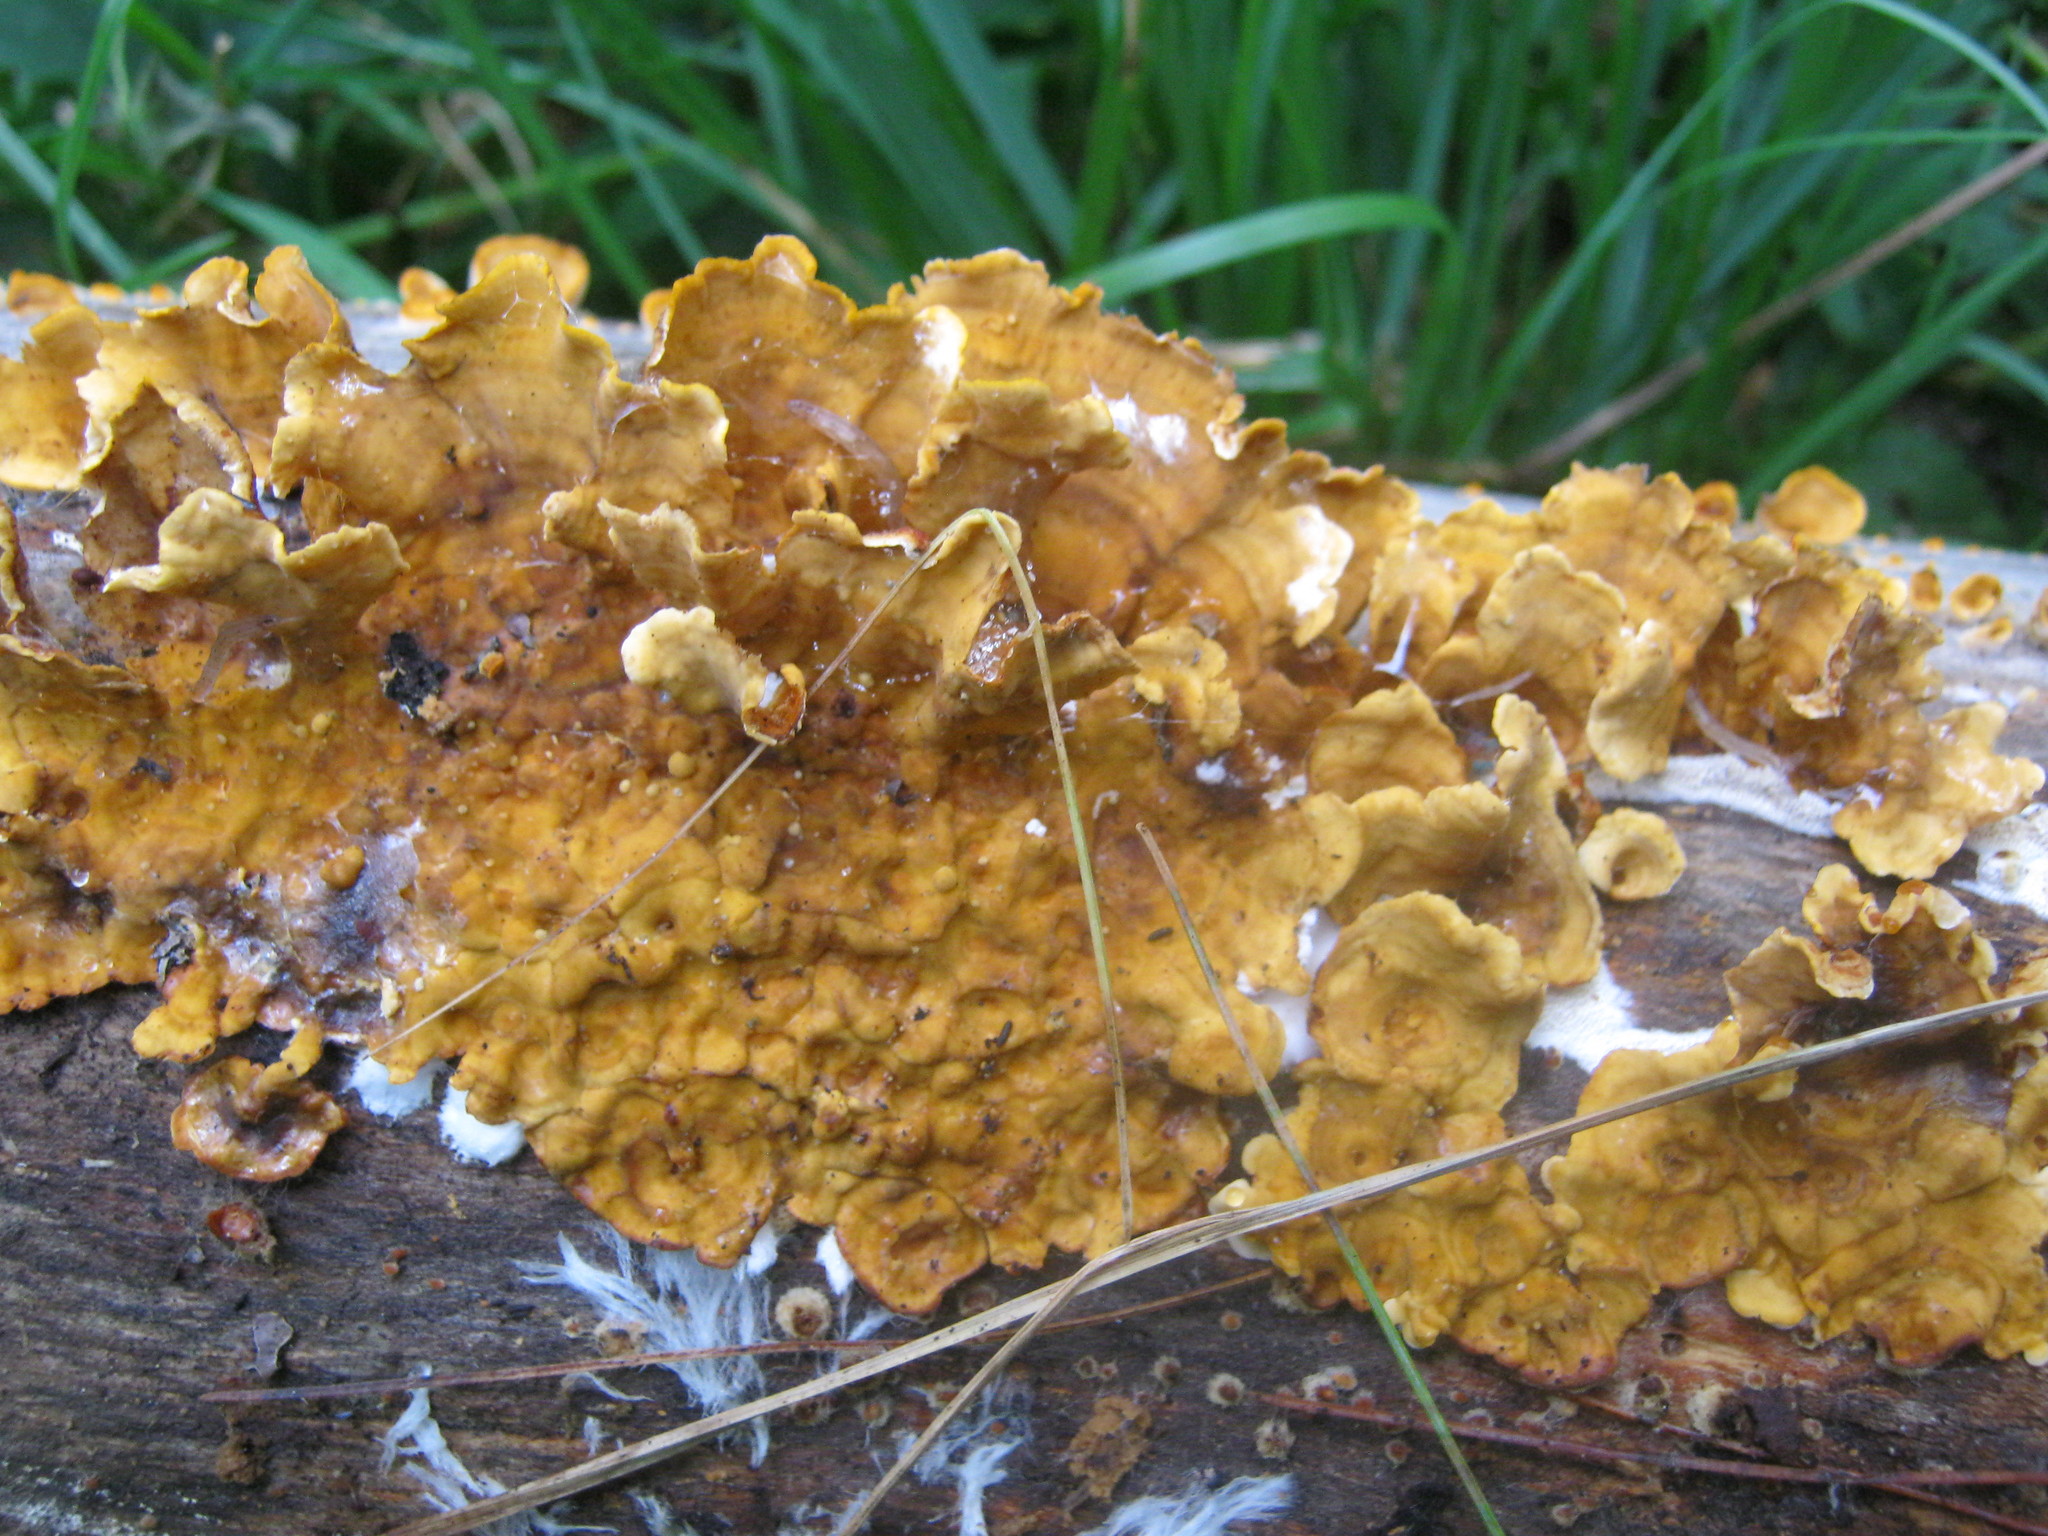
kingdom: Fungi
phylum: Basidiomycota
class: Agaricomycetes
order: Russulales
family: Stereaceae
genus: Stereum
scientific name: Stereum complicatum
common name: Crowded parchment
